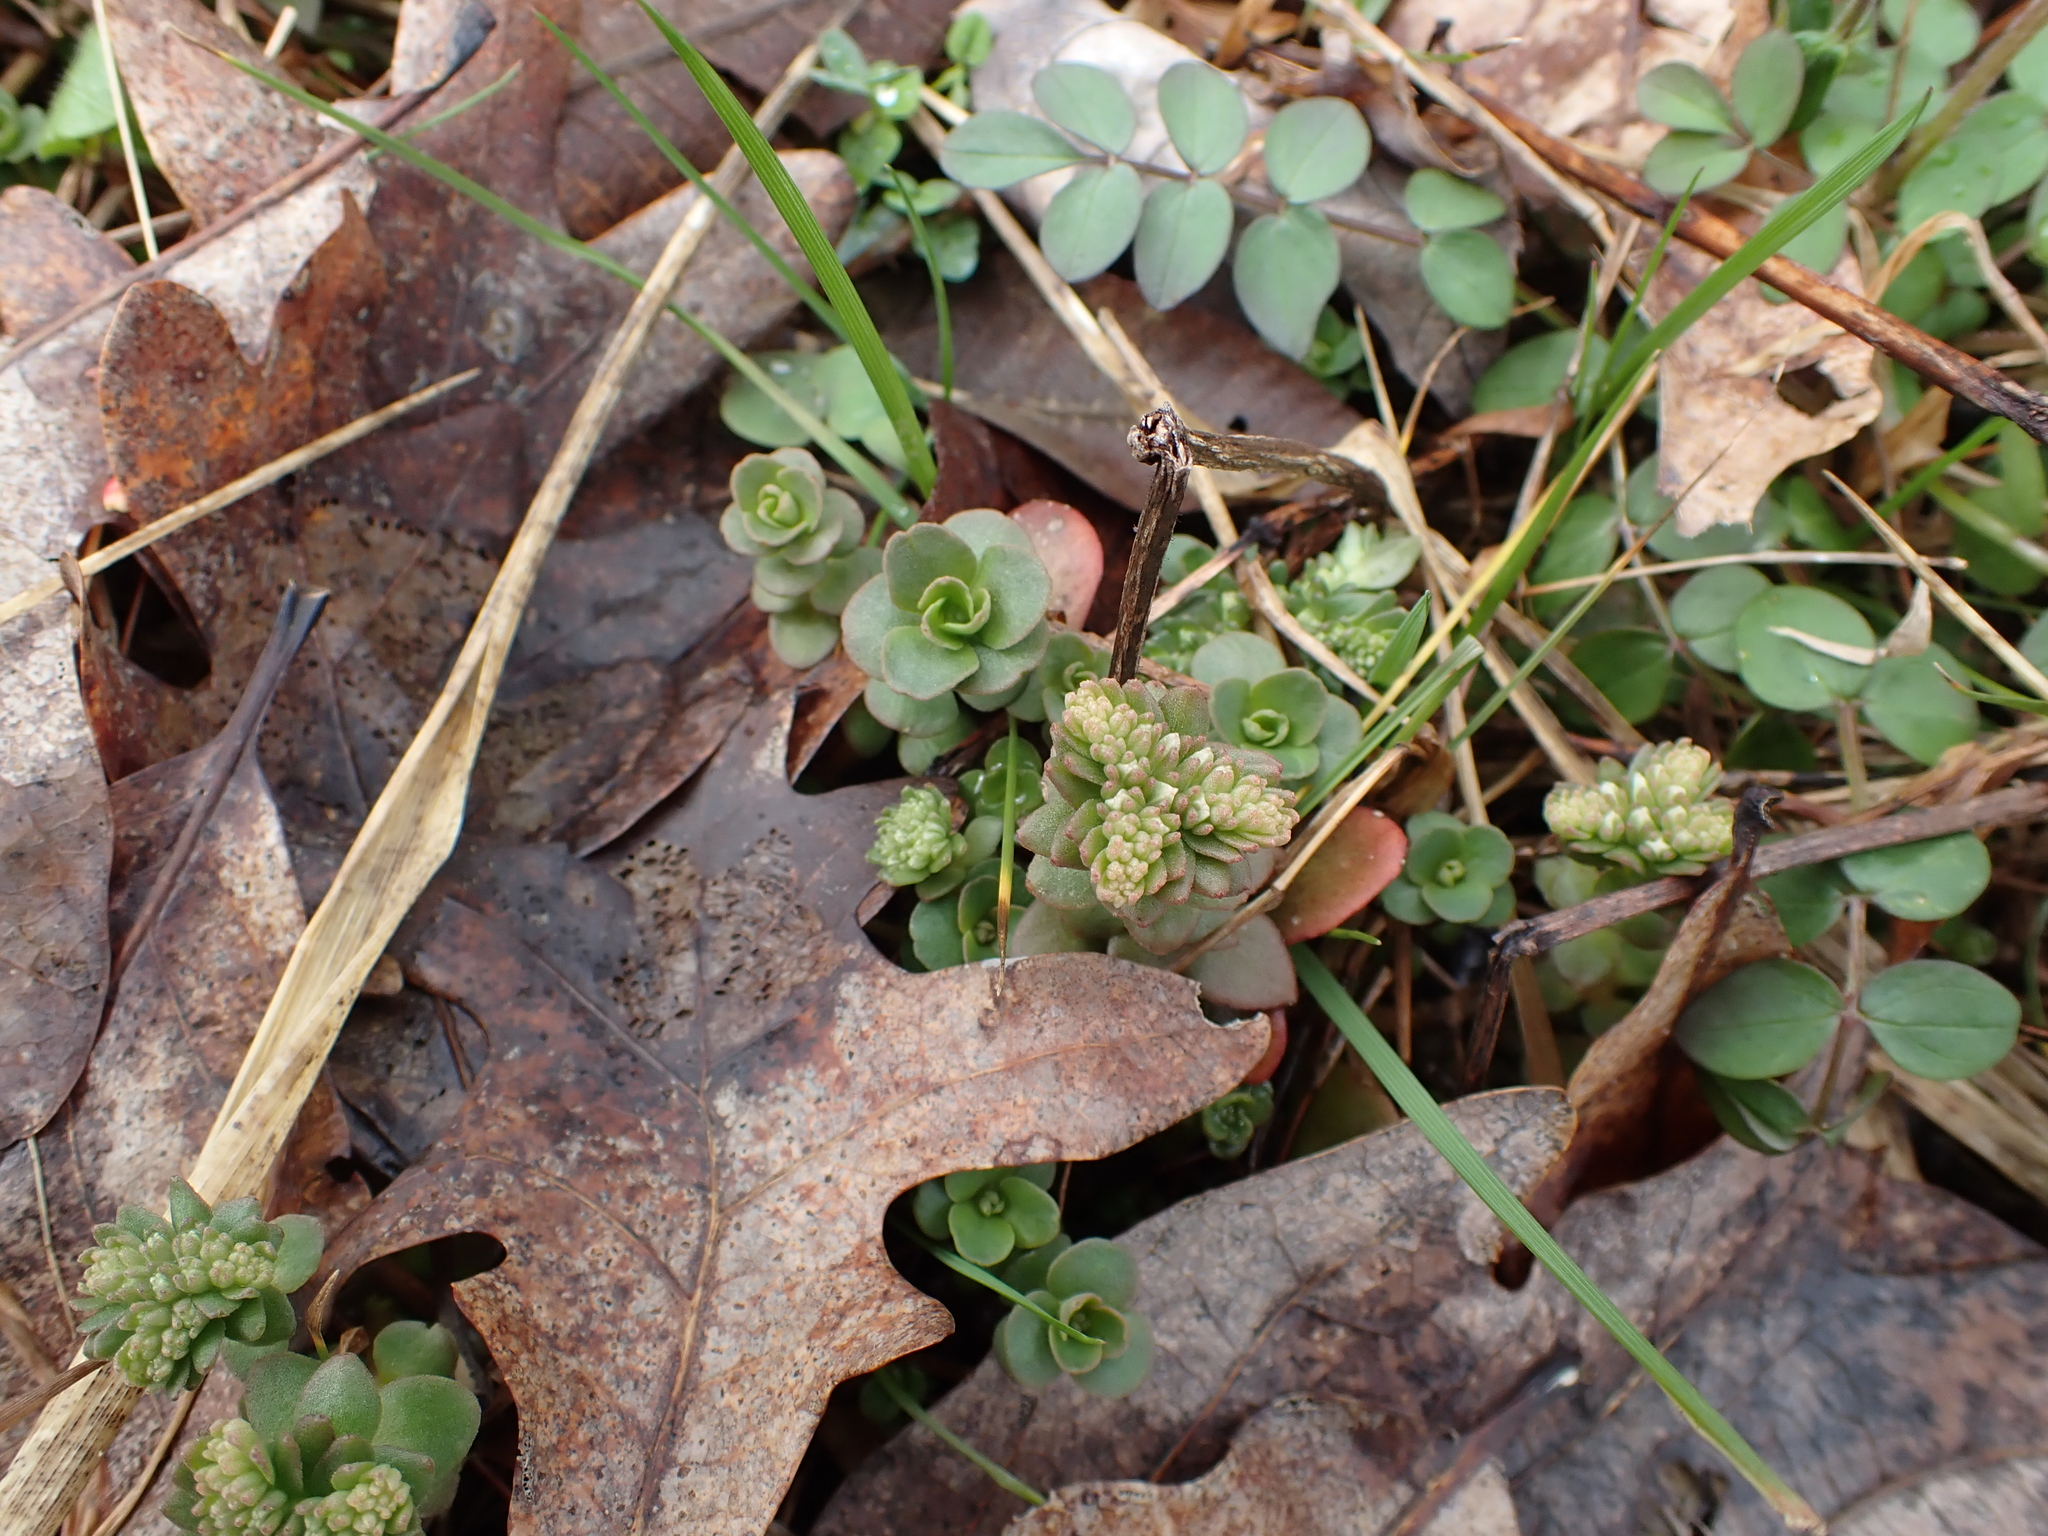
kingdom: Plantae
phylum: Tracheophyta
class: Magnoliopsida
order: Saxifragales
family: Crassulaceae
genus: Sedum
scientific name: Sedum ternatum
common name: Wild stonecrop
